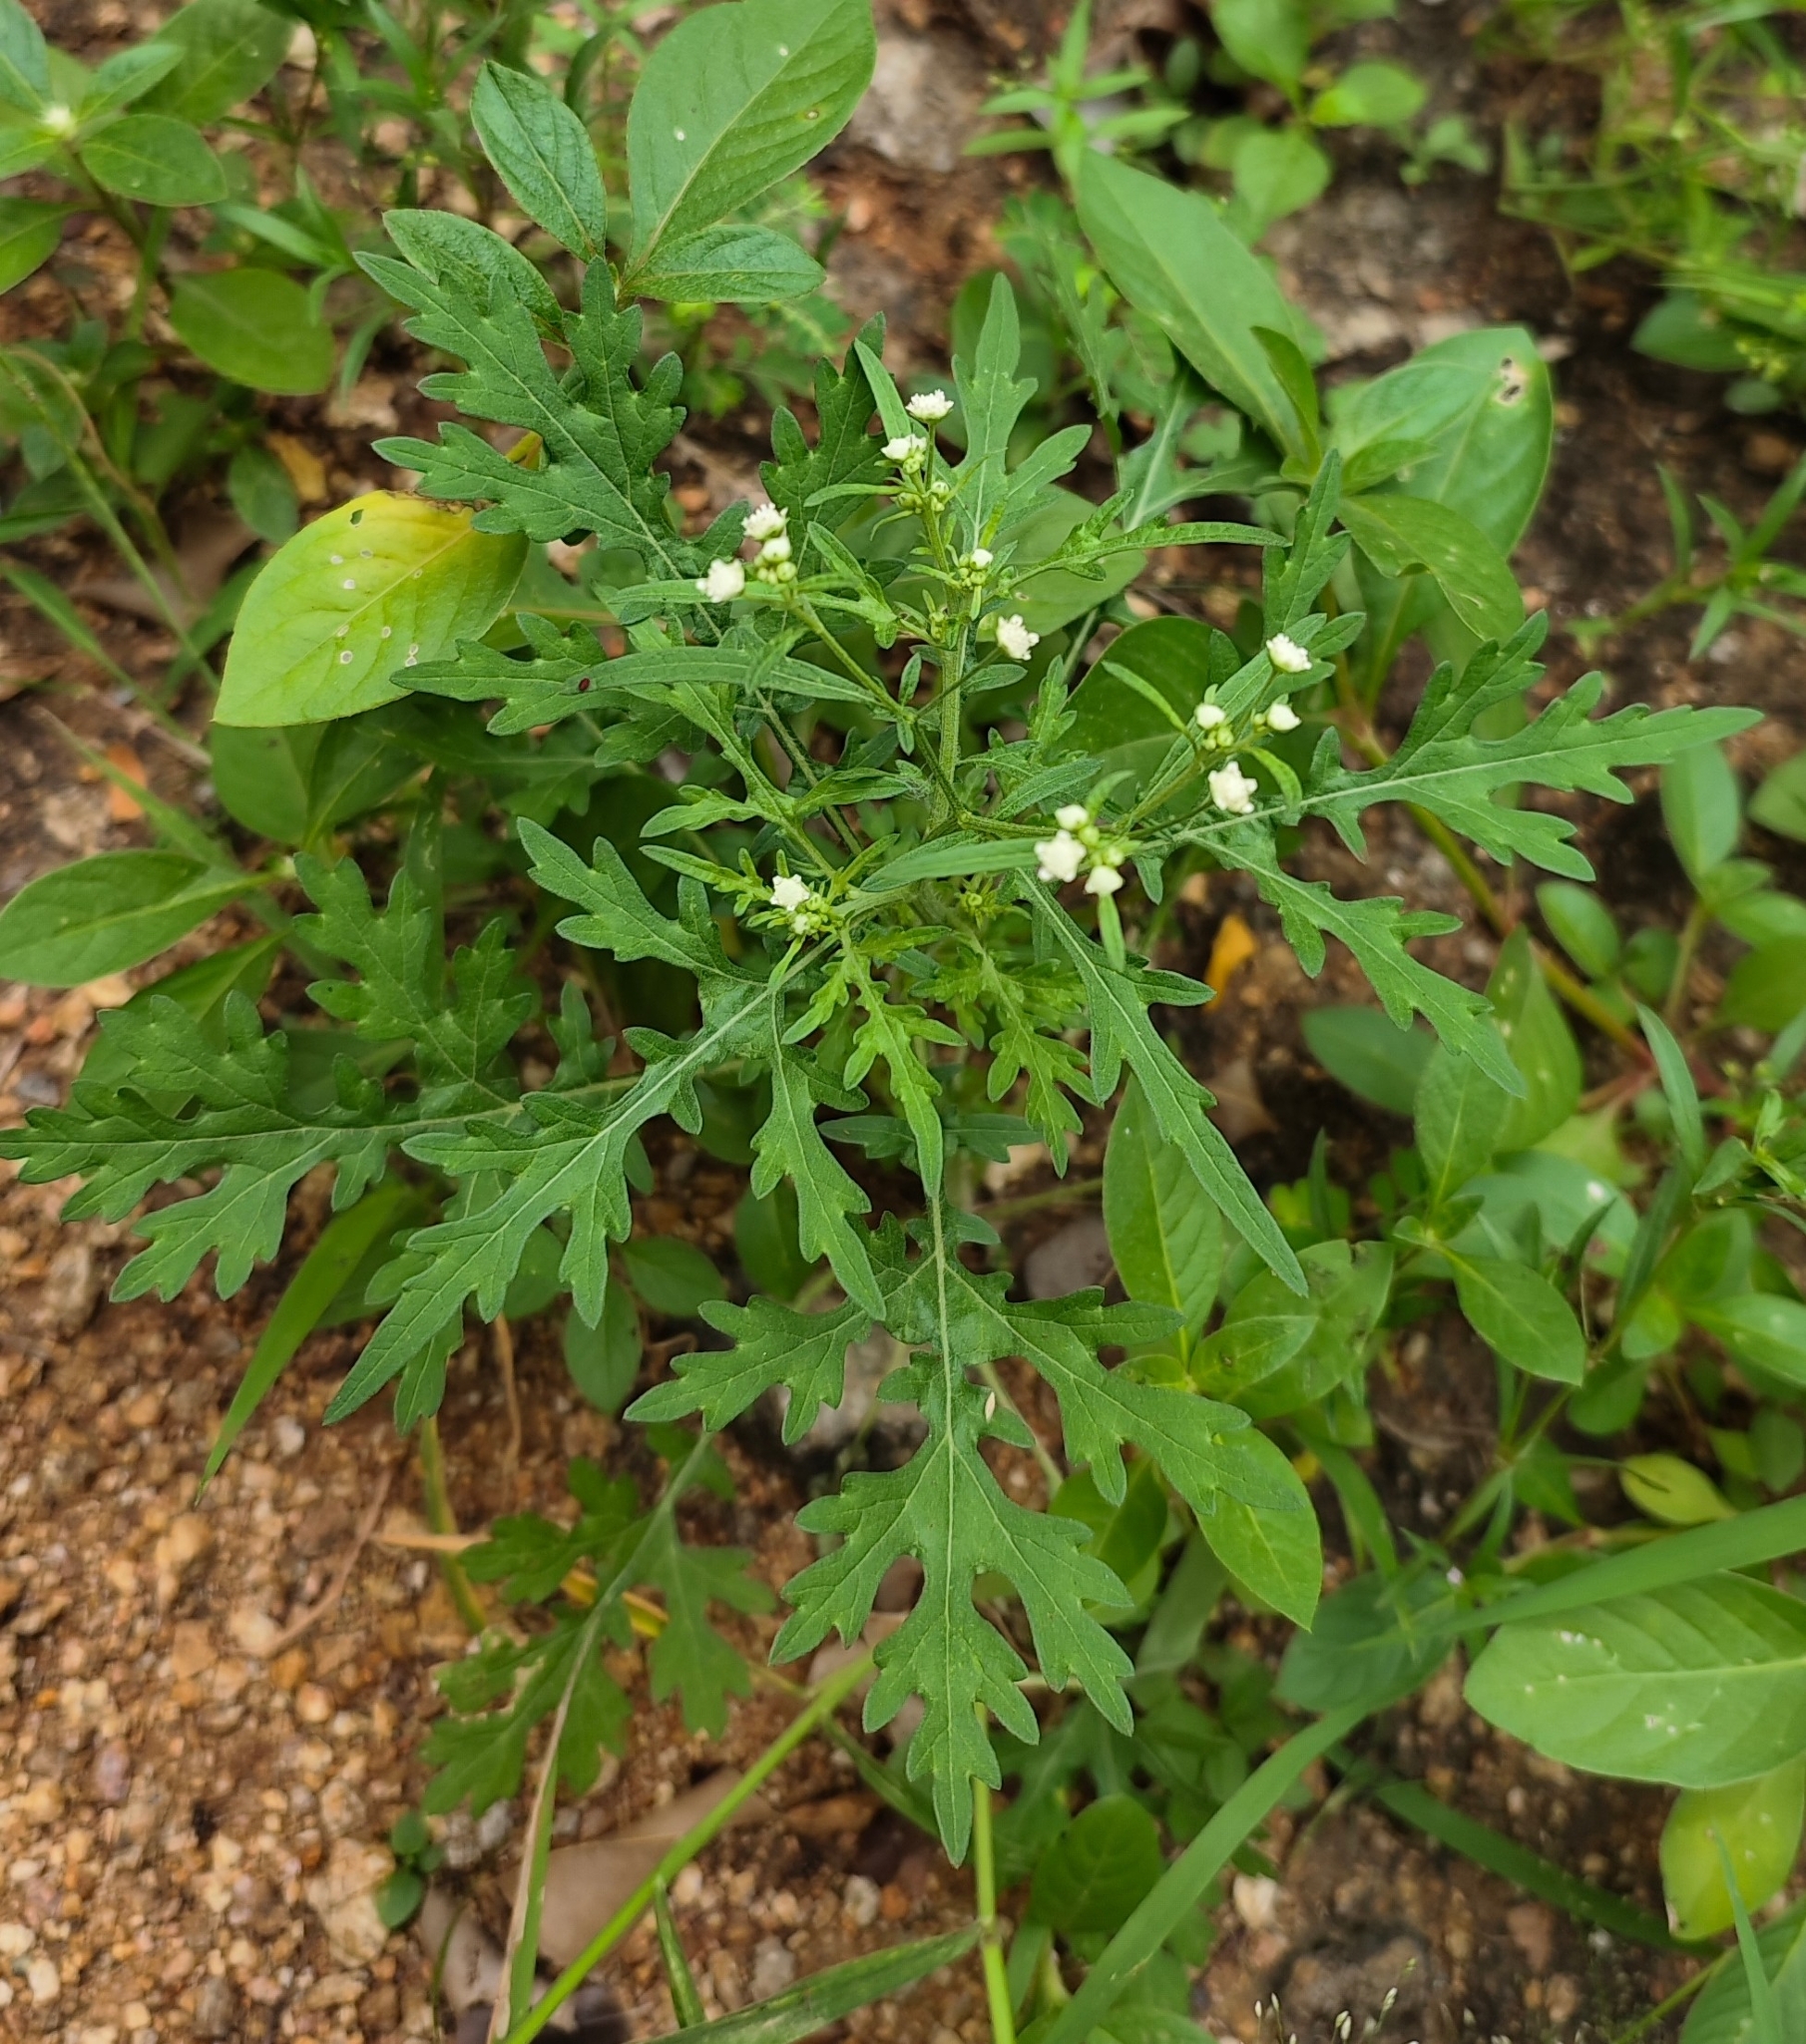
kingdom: Plantae
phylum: Tracheophyta
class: Magnoliopsida
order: Asterales
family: Asteraceae
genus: Parthenium
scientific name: Parthenium hysterophorus
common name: Santa maria feverfew
